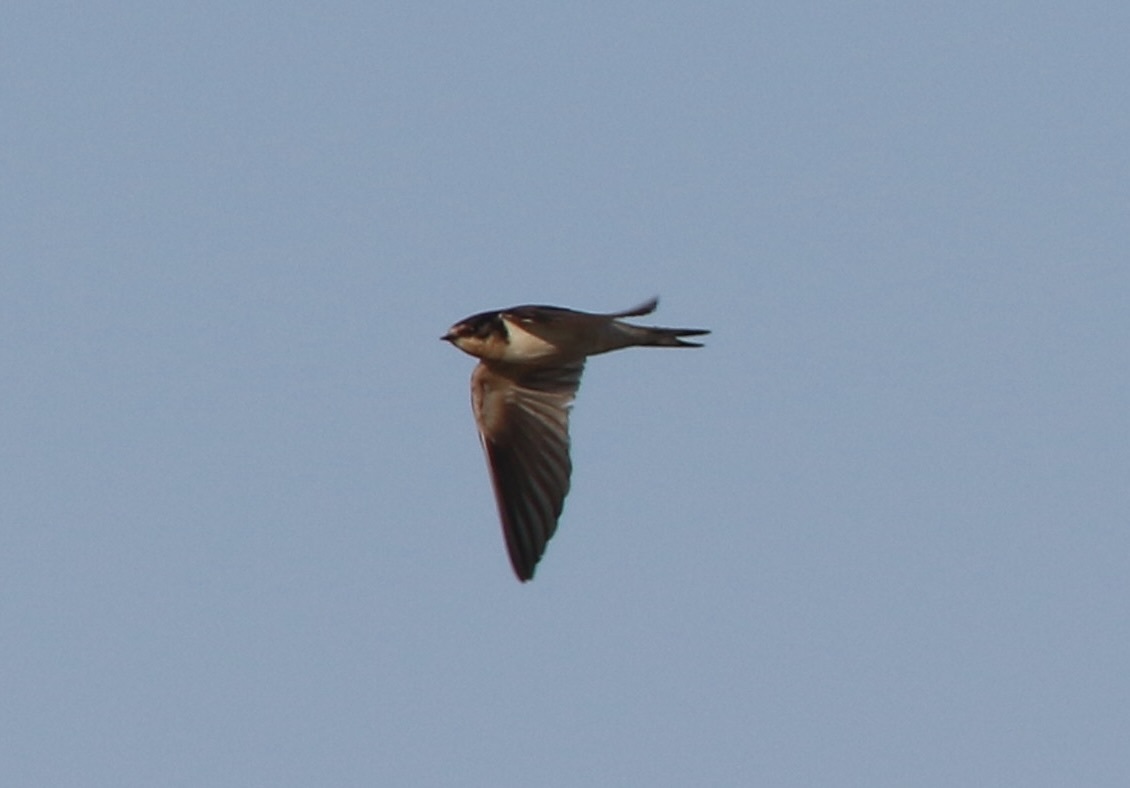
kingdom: Animalia
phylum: Chordata
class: Aves
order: Passeriformes
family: Hirundinidae
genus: Hirundo
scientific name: Hirundo rustica
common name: Barn swallow
